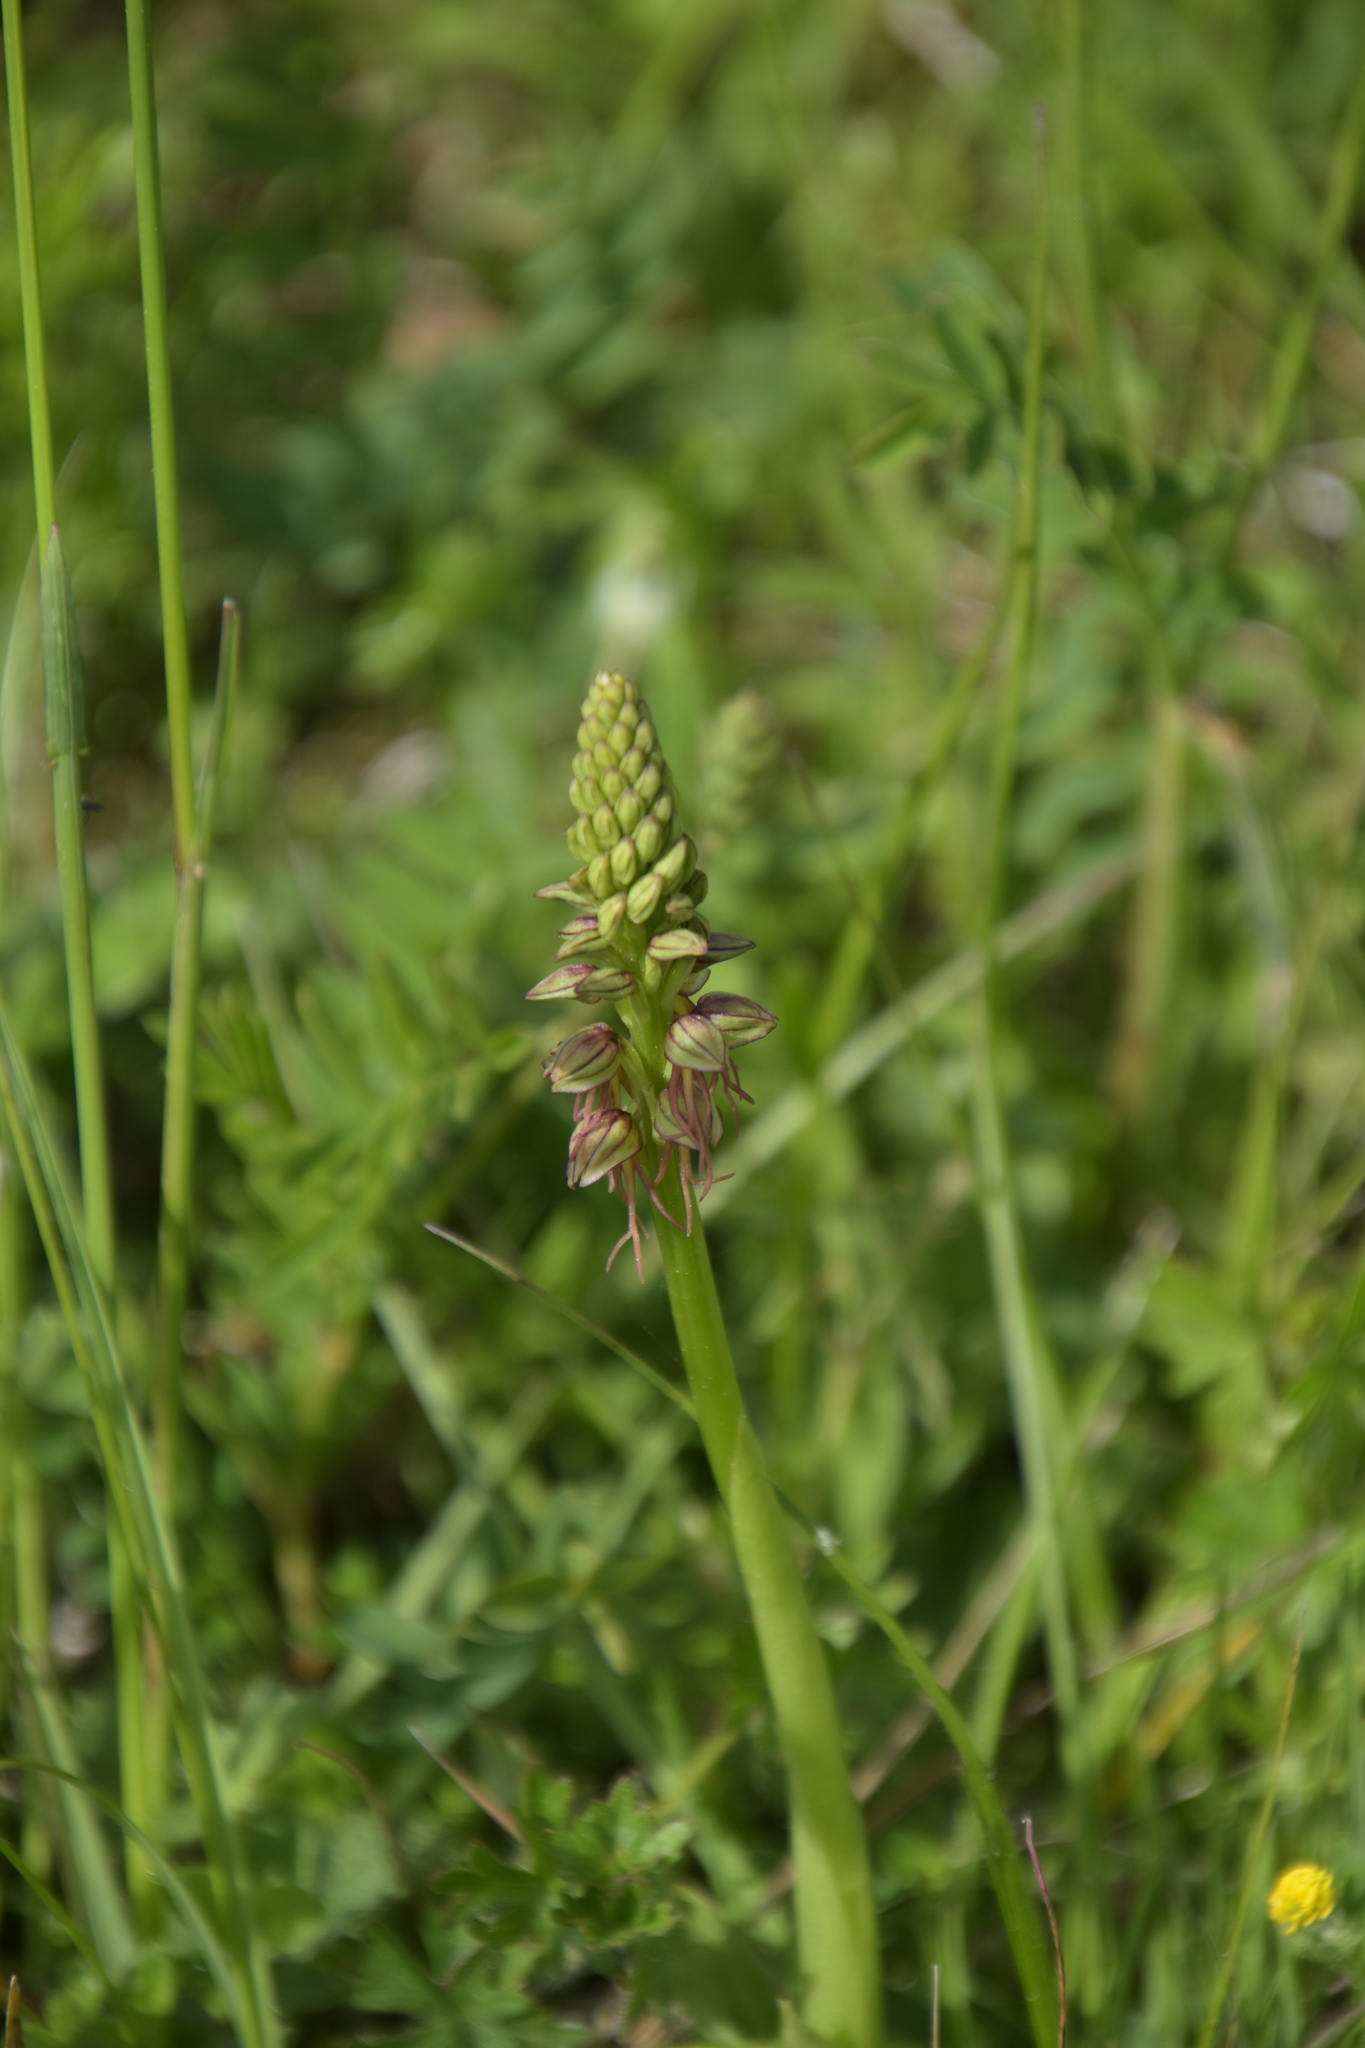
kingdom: Plantae
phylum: Tracheophyta
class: Liliopsida
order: Asparagales
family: Orchidaceae
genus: Orchis
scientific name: Orchis anthropophora
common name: Man orchid
